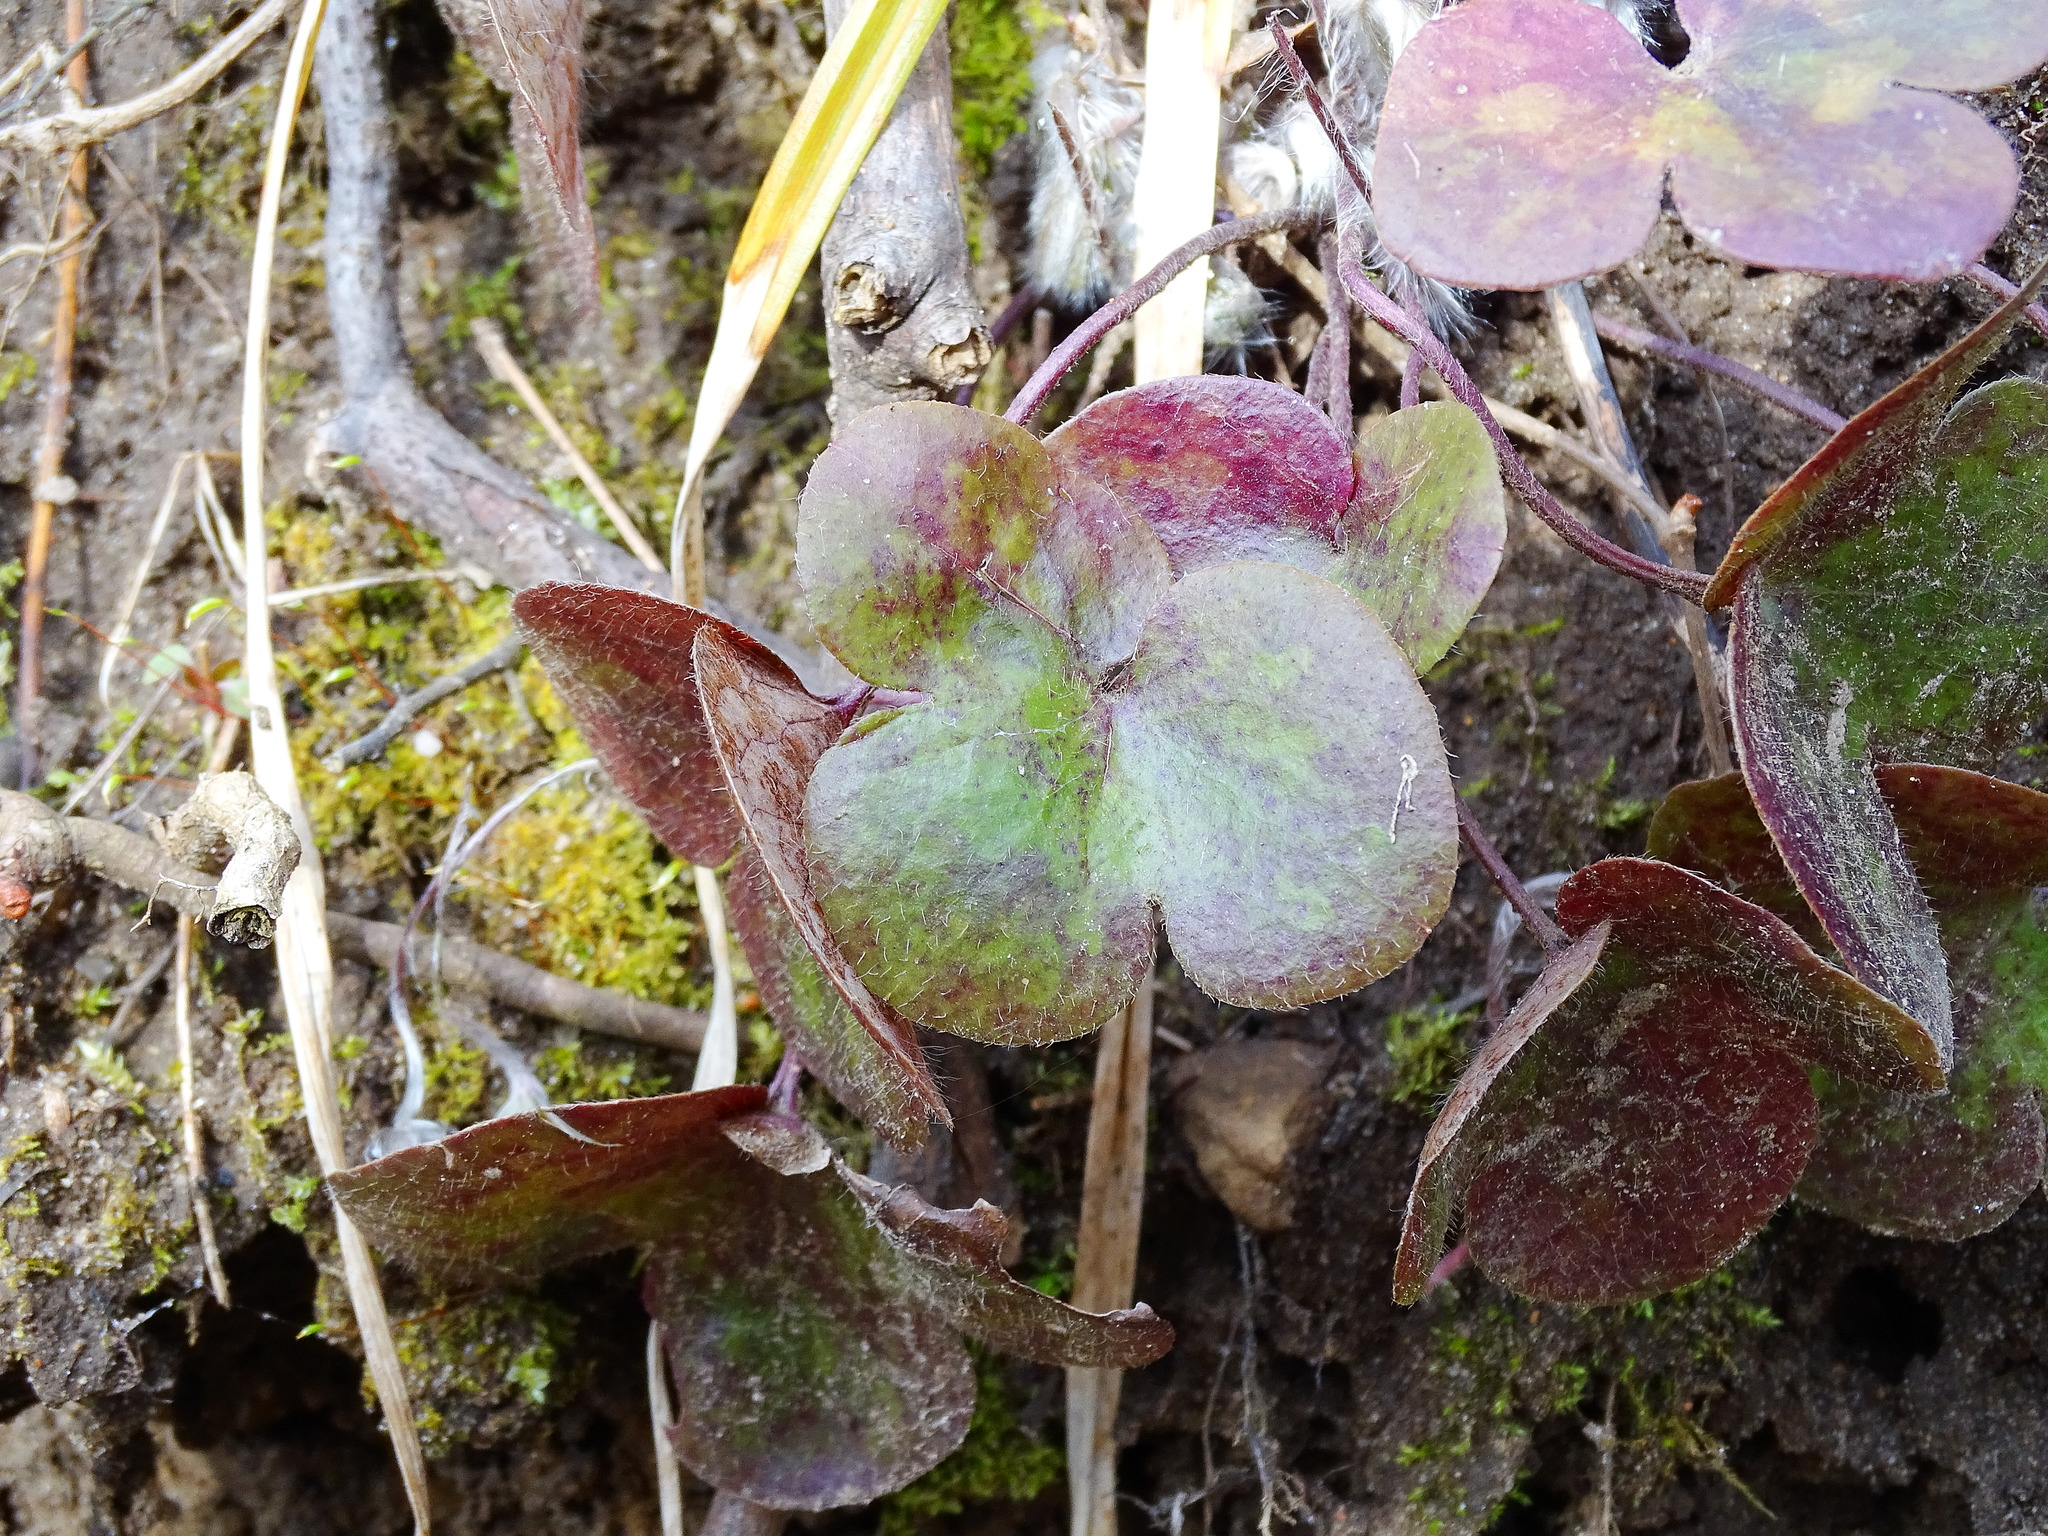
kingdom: Plantae
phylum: Tracheophyta
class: Magnoliopsida
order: Ranunculales
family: Ranunculaceae
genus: Hepatica
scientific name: Hepatica americana
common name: American hepatica
